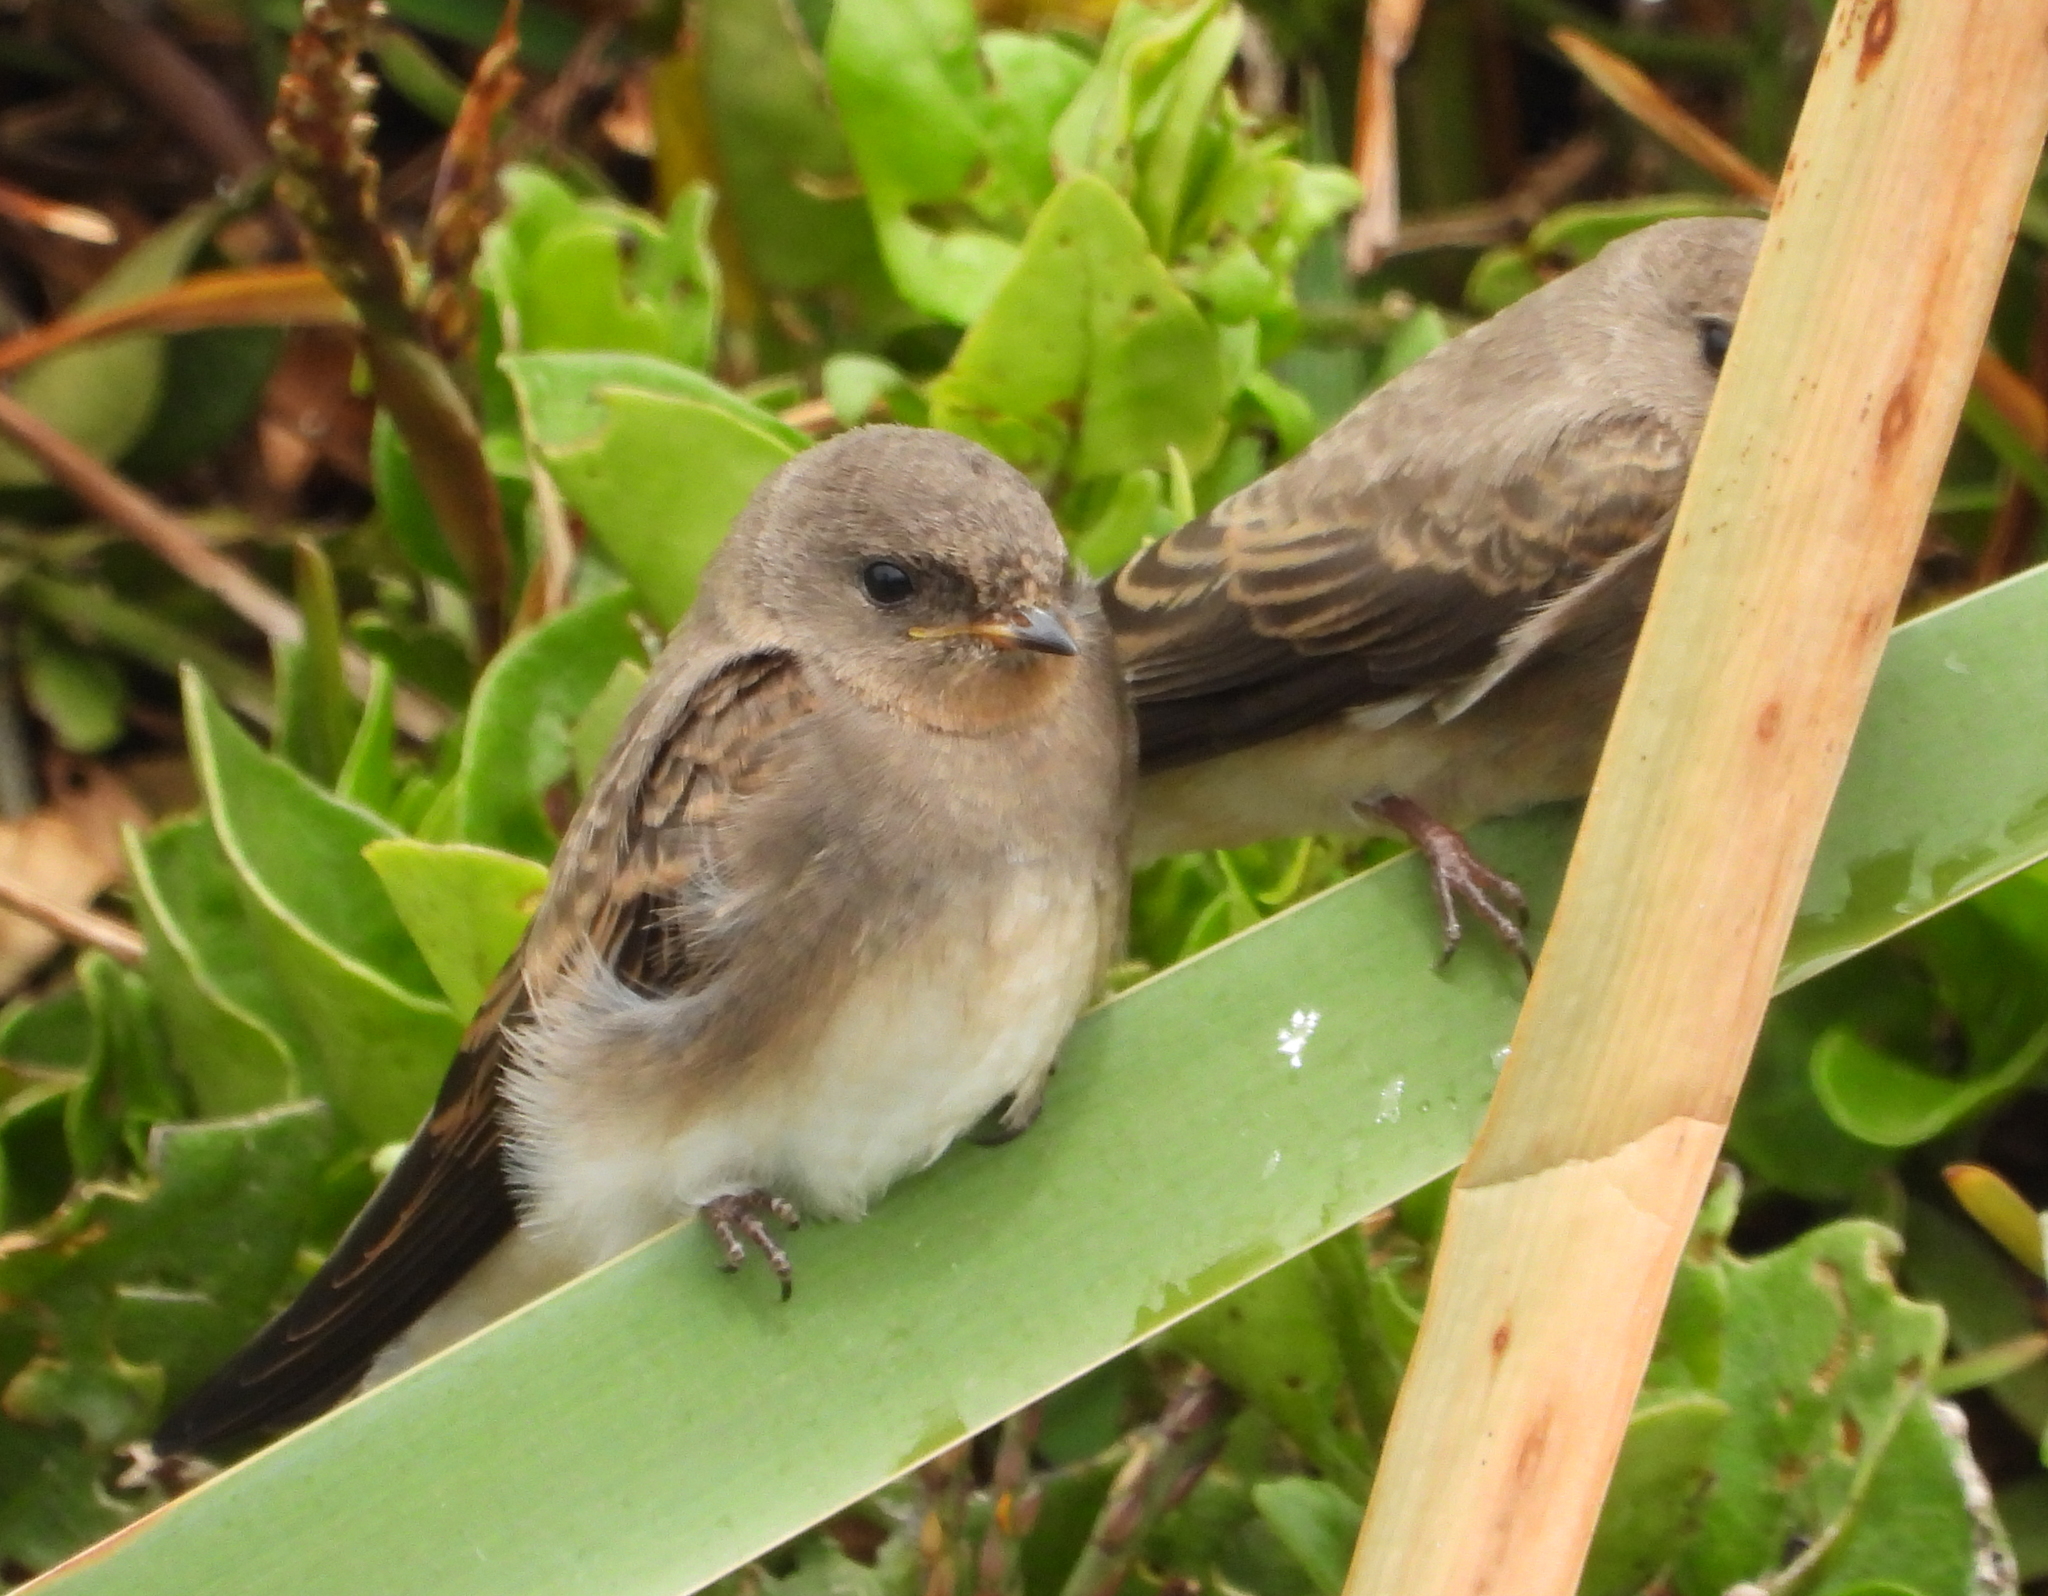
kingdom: Animalia
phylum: Chordata
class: Aves
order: Passeriformes
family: Hirundinidae
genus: Riparia
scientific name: Riparia paludicola
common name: Brown-throated martin
